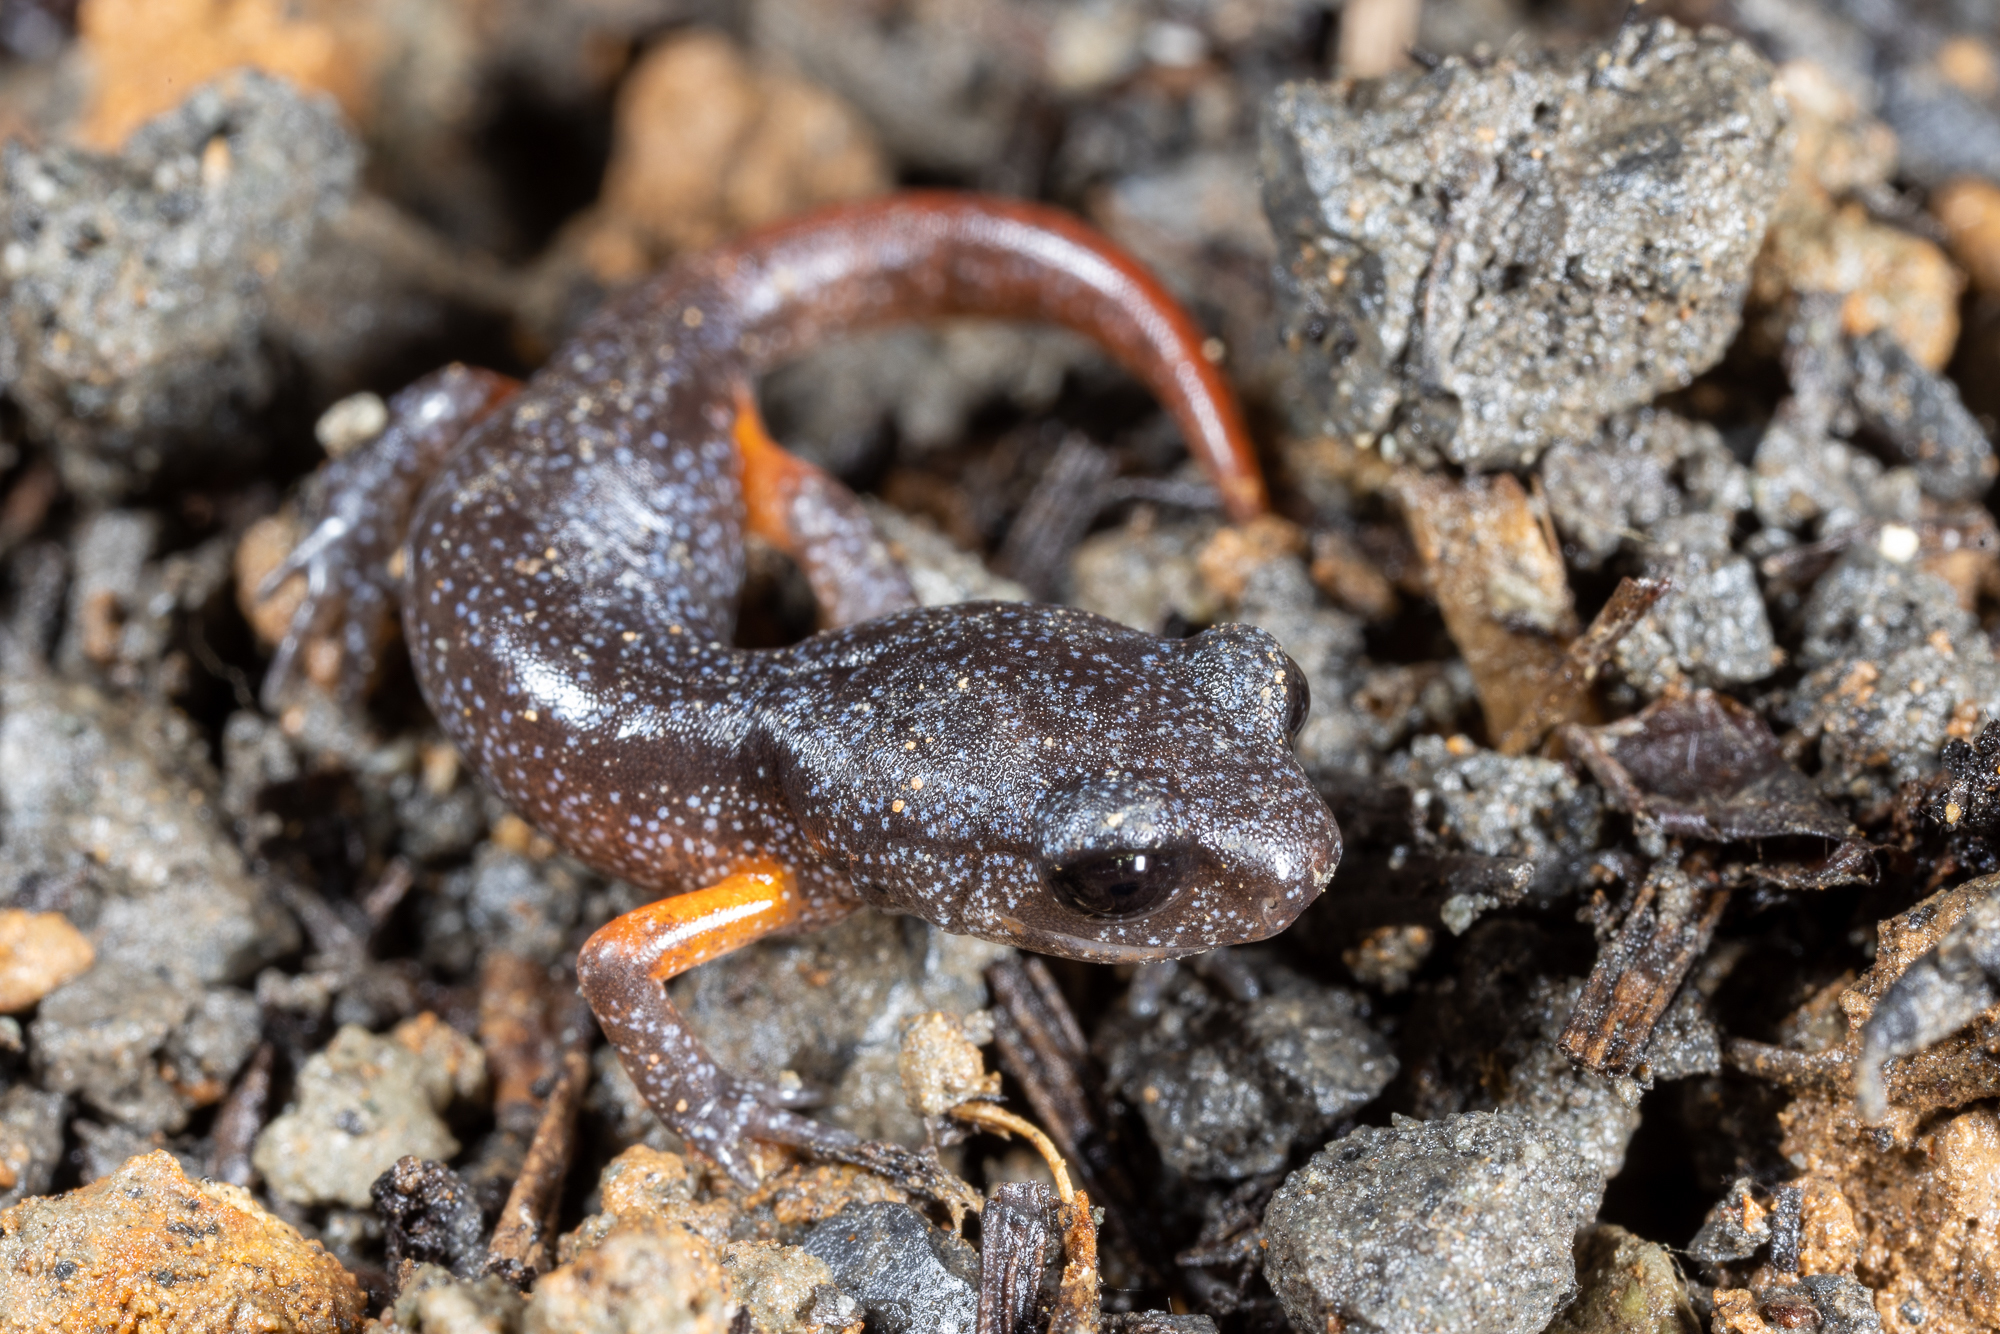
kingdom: Animalia
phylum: Chordata
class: Amphibia
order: Caudata
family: Plethodontidae
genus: Ensatina
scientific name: Ensatina eschscholtzii
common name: Ensatina
